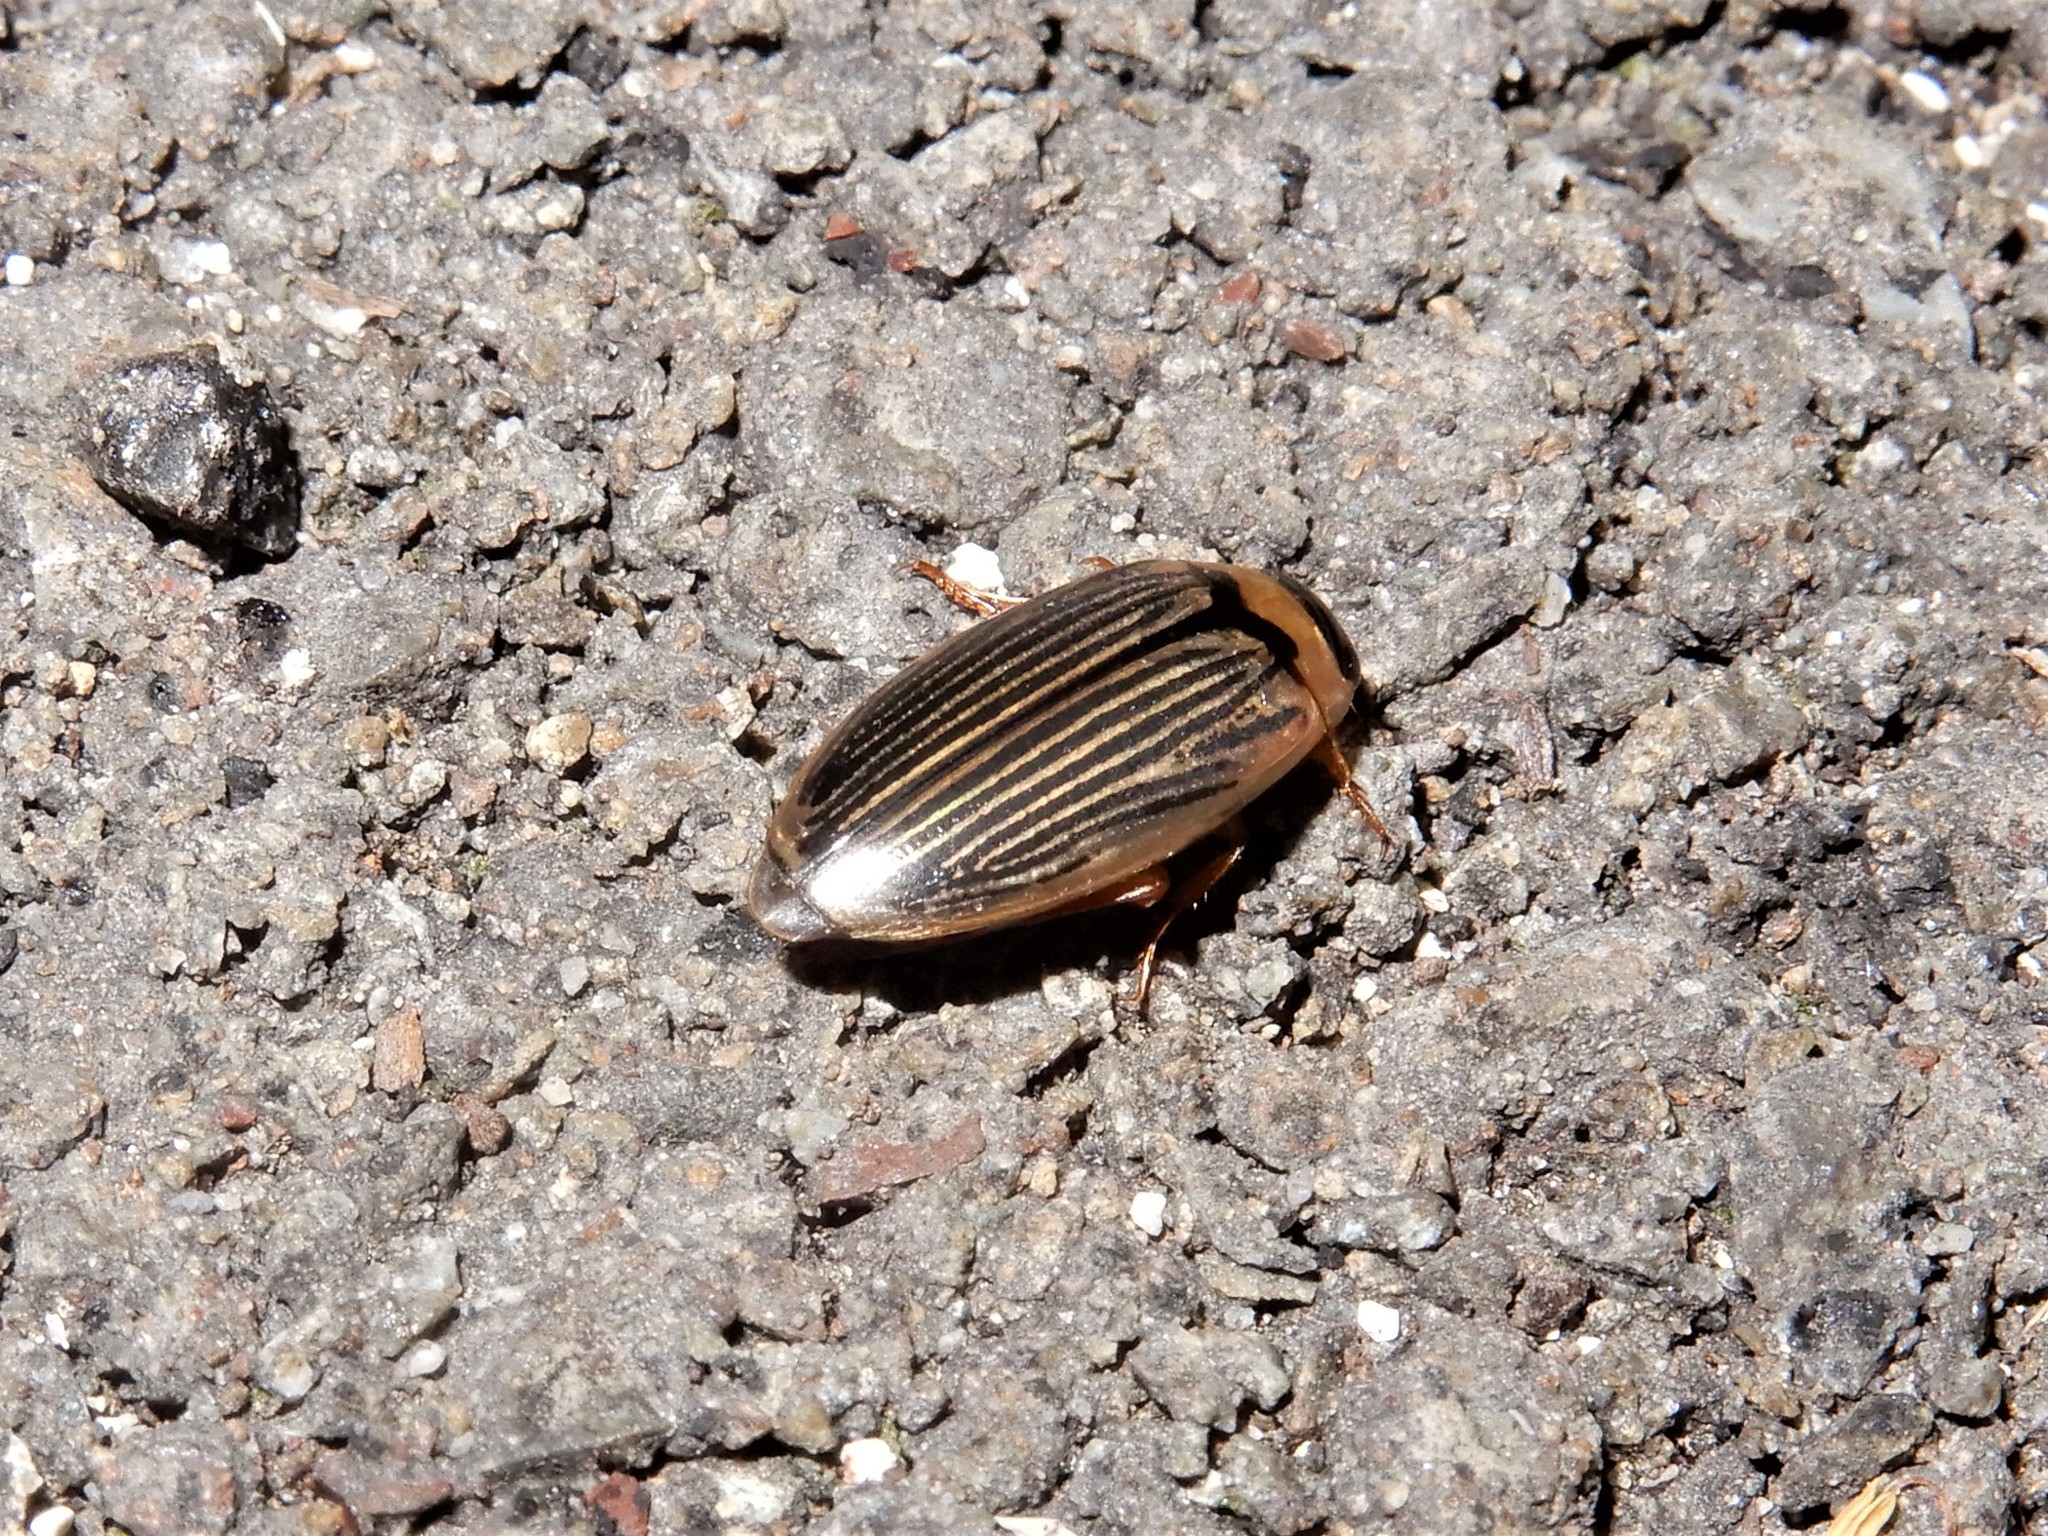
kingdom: Animalia
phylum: Arthropoda
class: Insecta
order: Coleoptera
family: Dytiscidae
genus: Lancetes
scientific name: Lancetes lanceolatus
